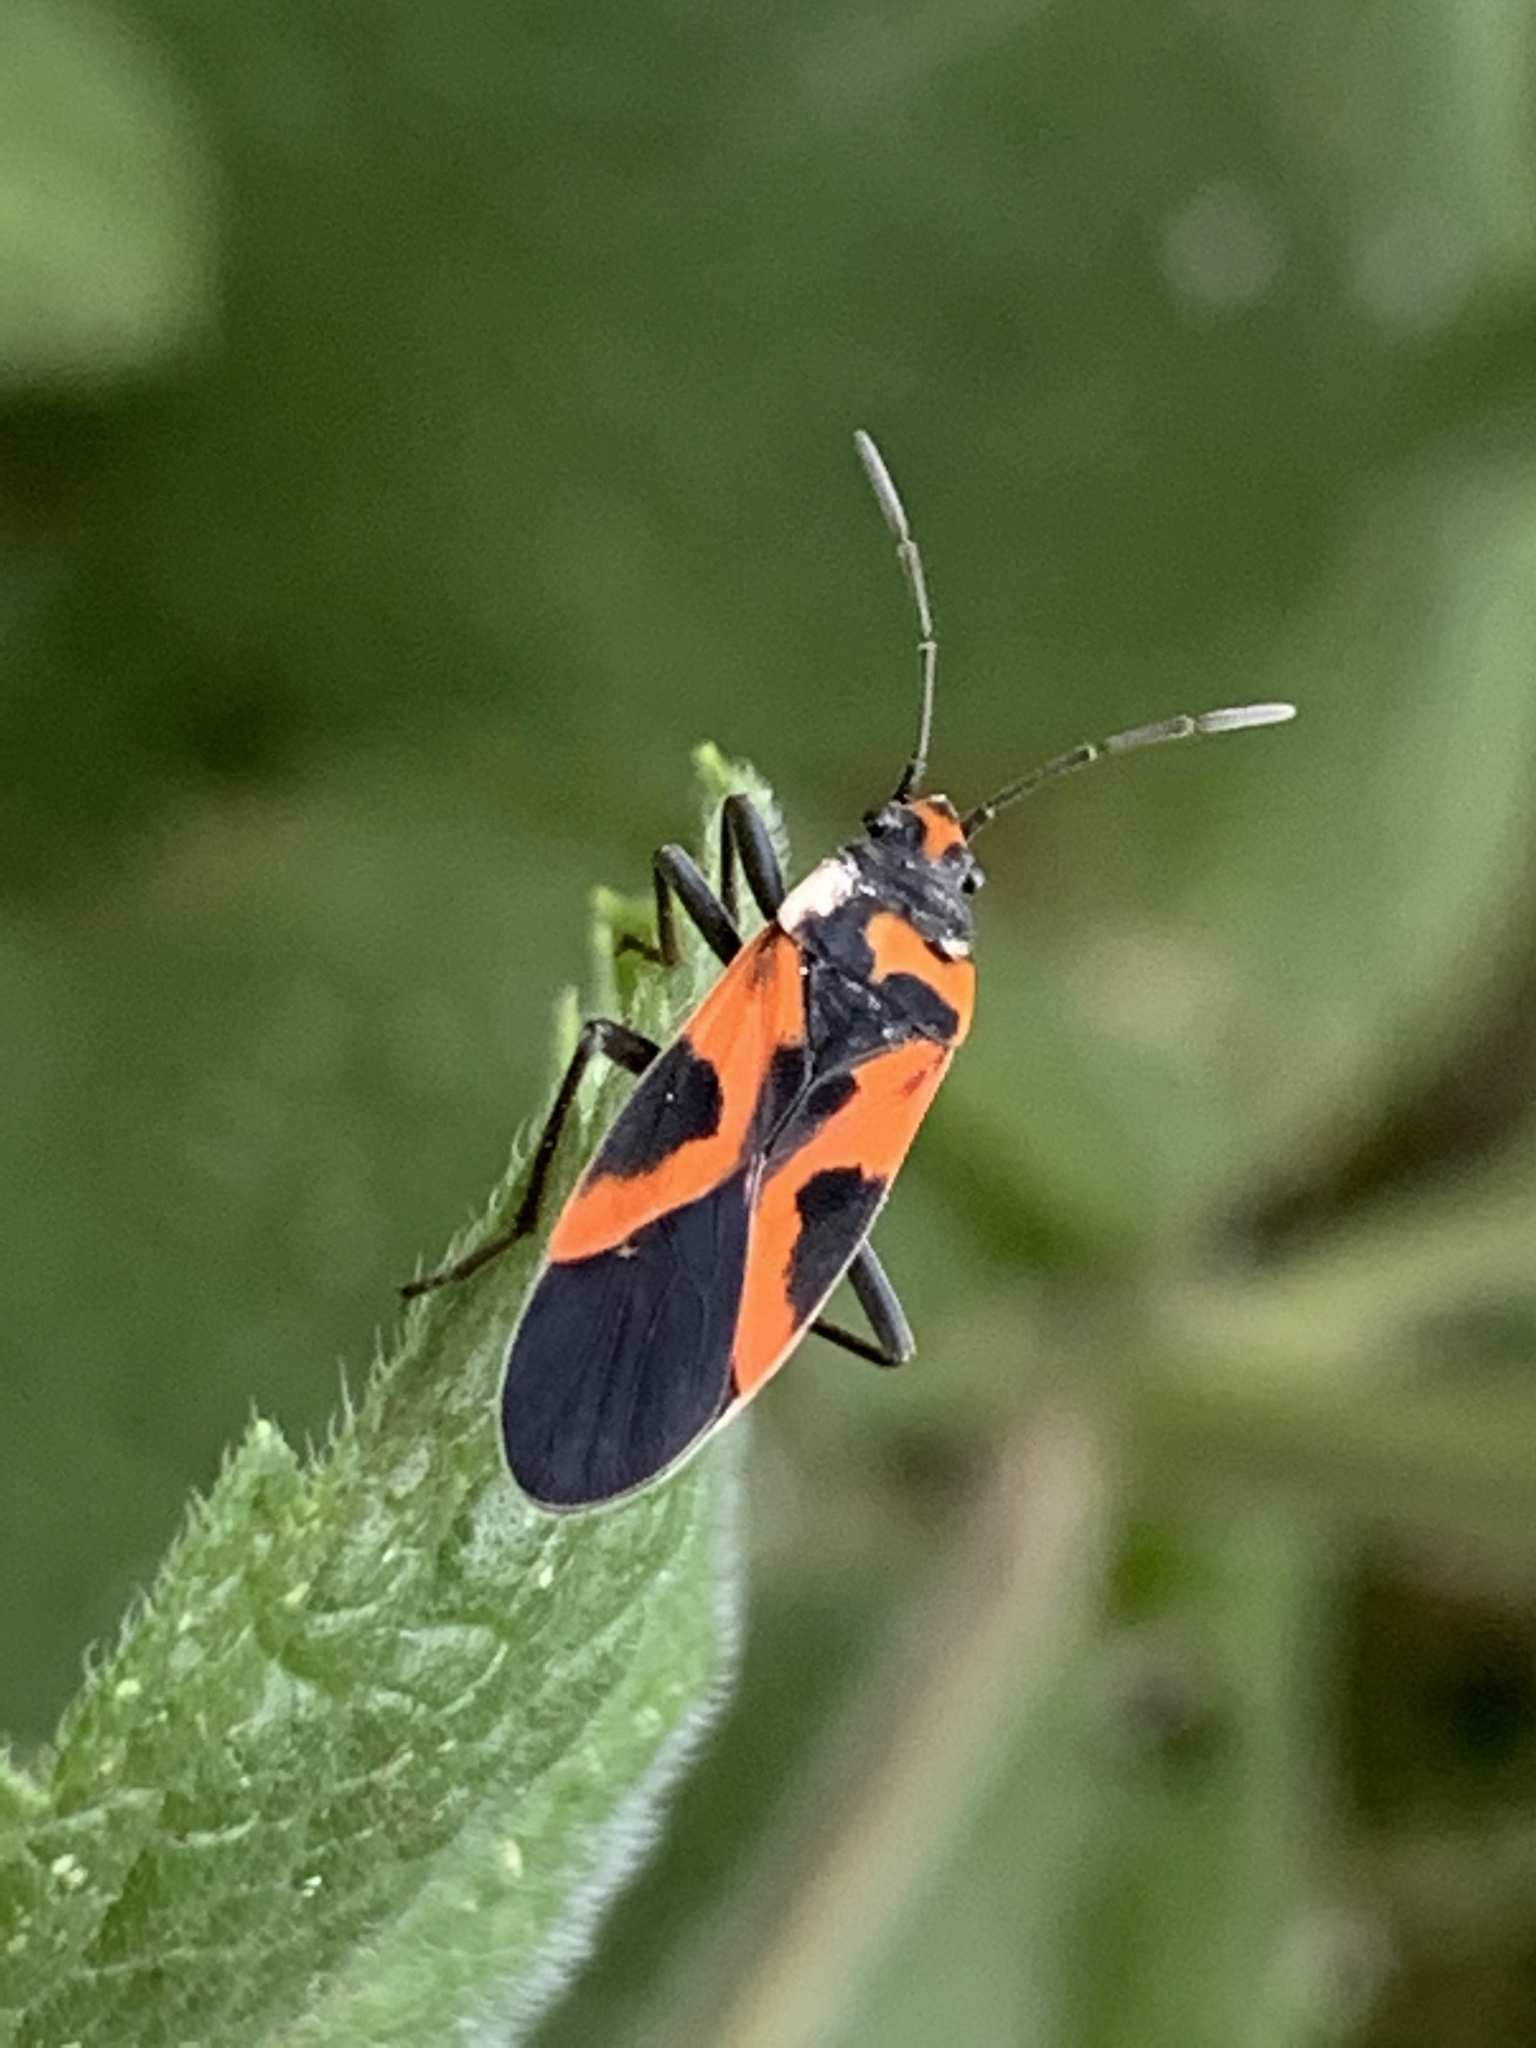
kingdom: Animalia
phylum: Arthropoda
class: Insecta
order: Hemiptera
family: Lygaeidae
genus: Lygaeus
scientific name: Lygaeus turcicus
